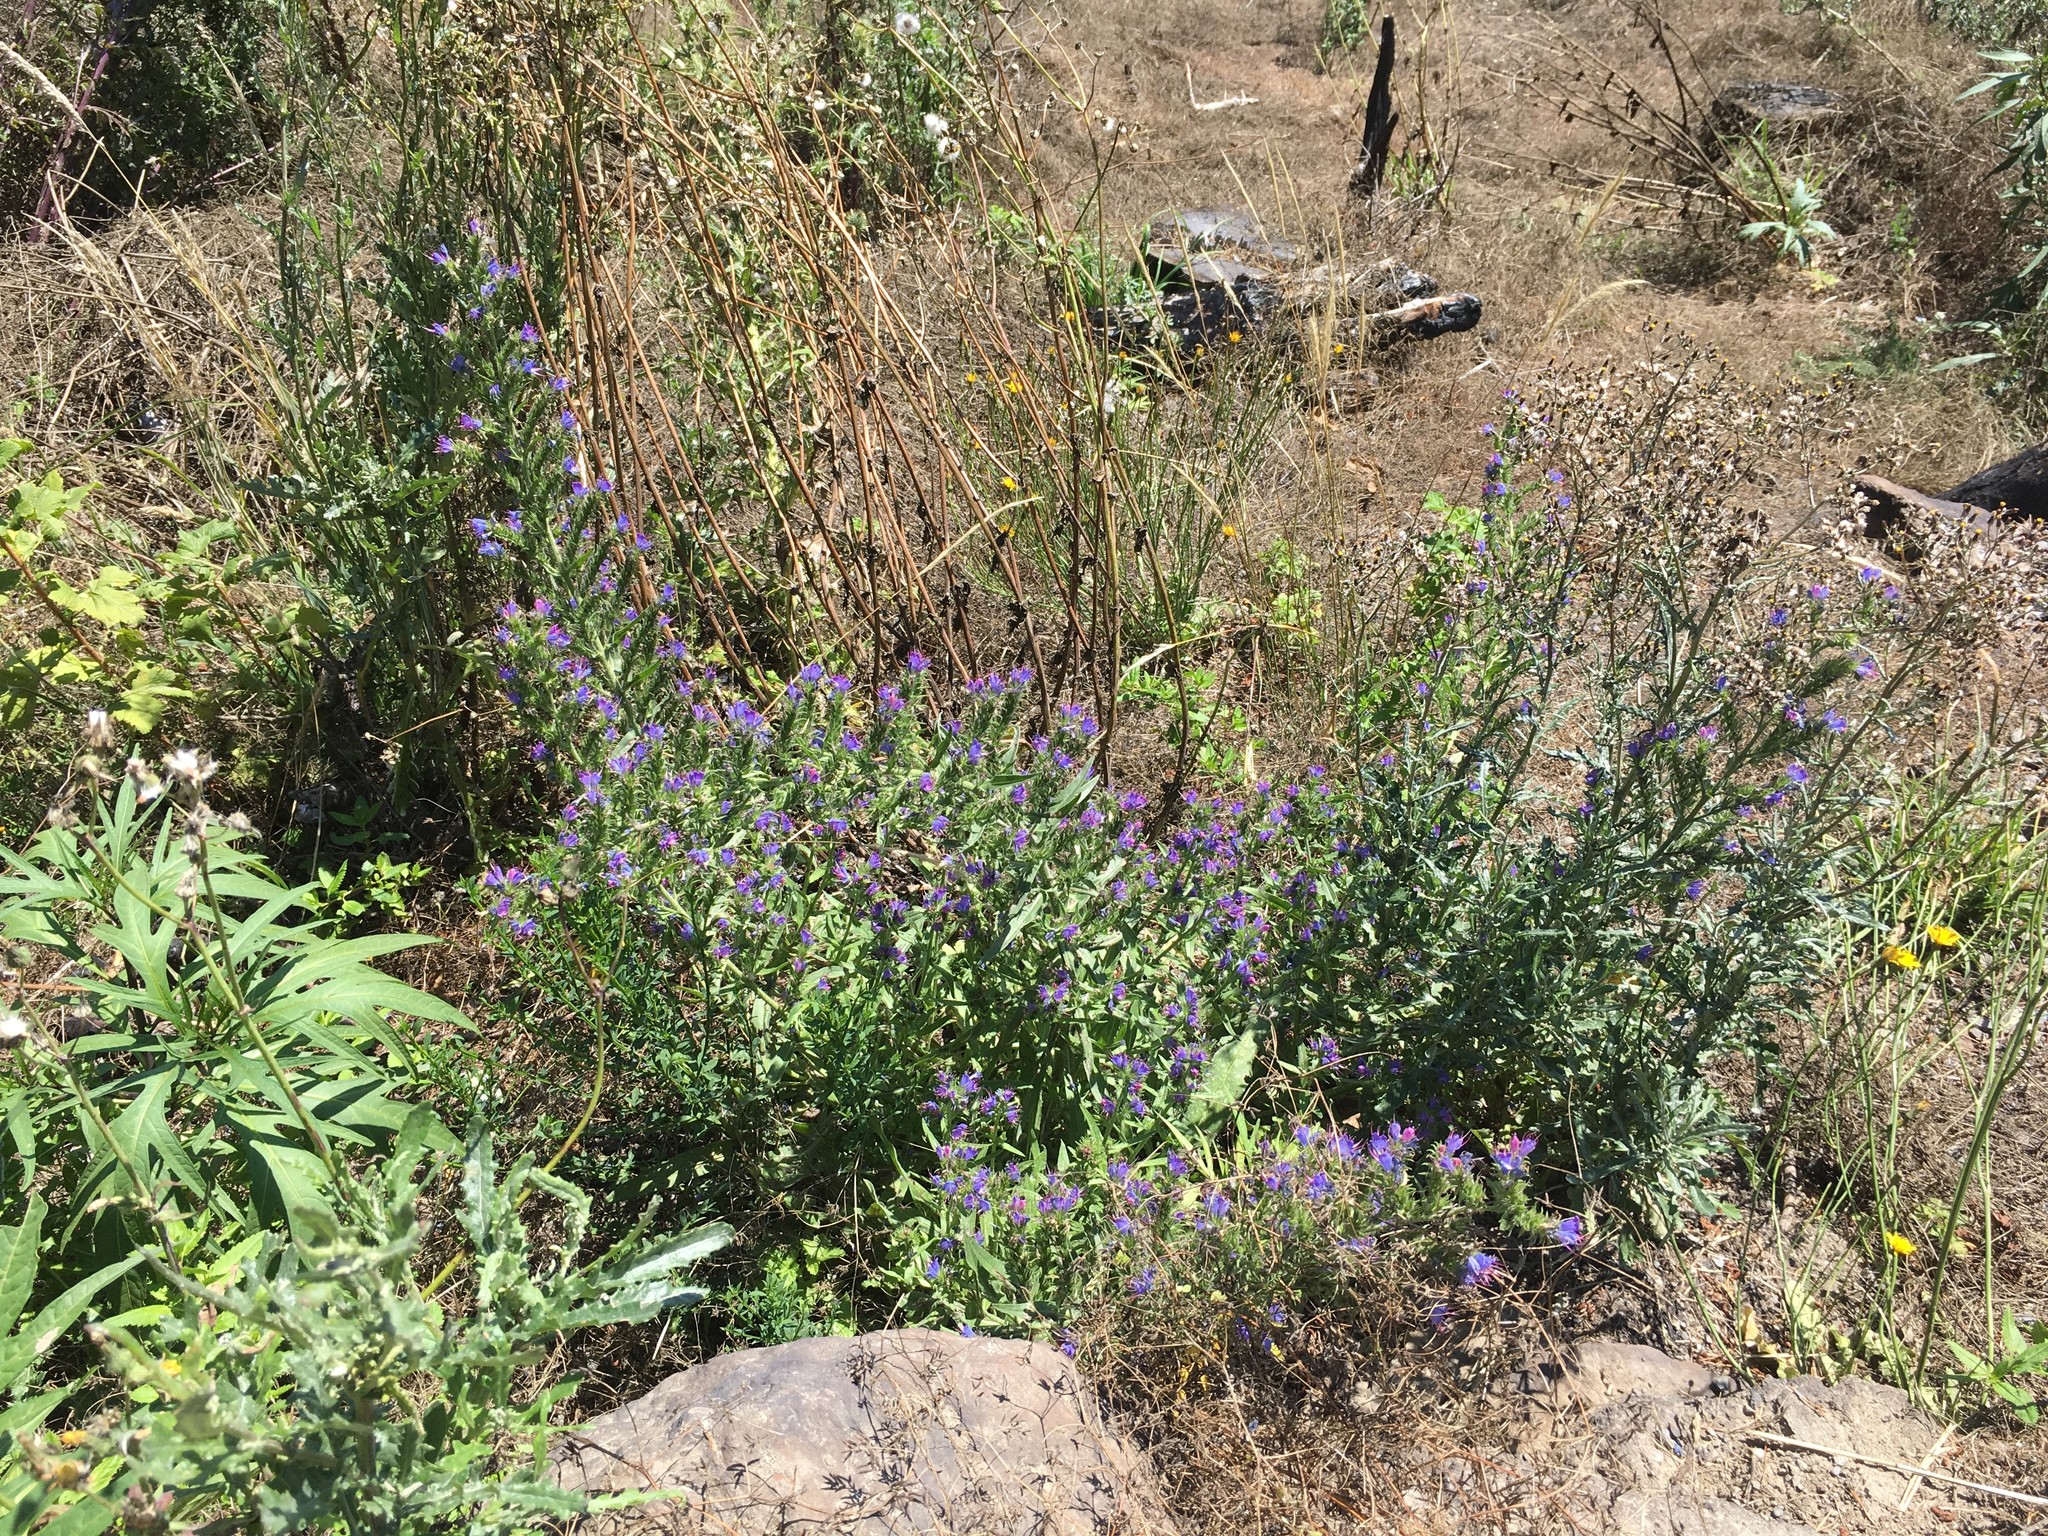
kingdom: Plantae
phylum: Tracheophyta
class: Magnoliopsida
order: Boraginales
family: Boraginaceae
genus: Echium
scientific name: Echium vulgare
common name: Common viper's bugloss
